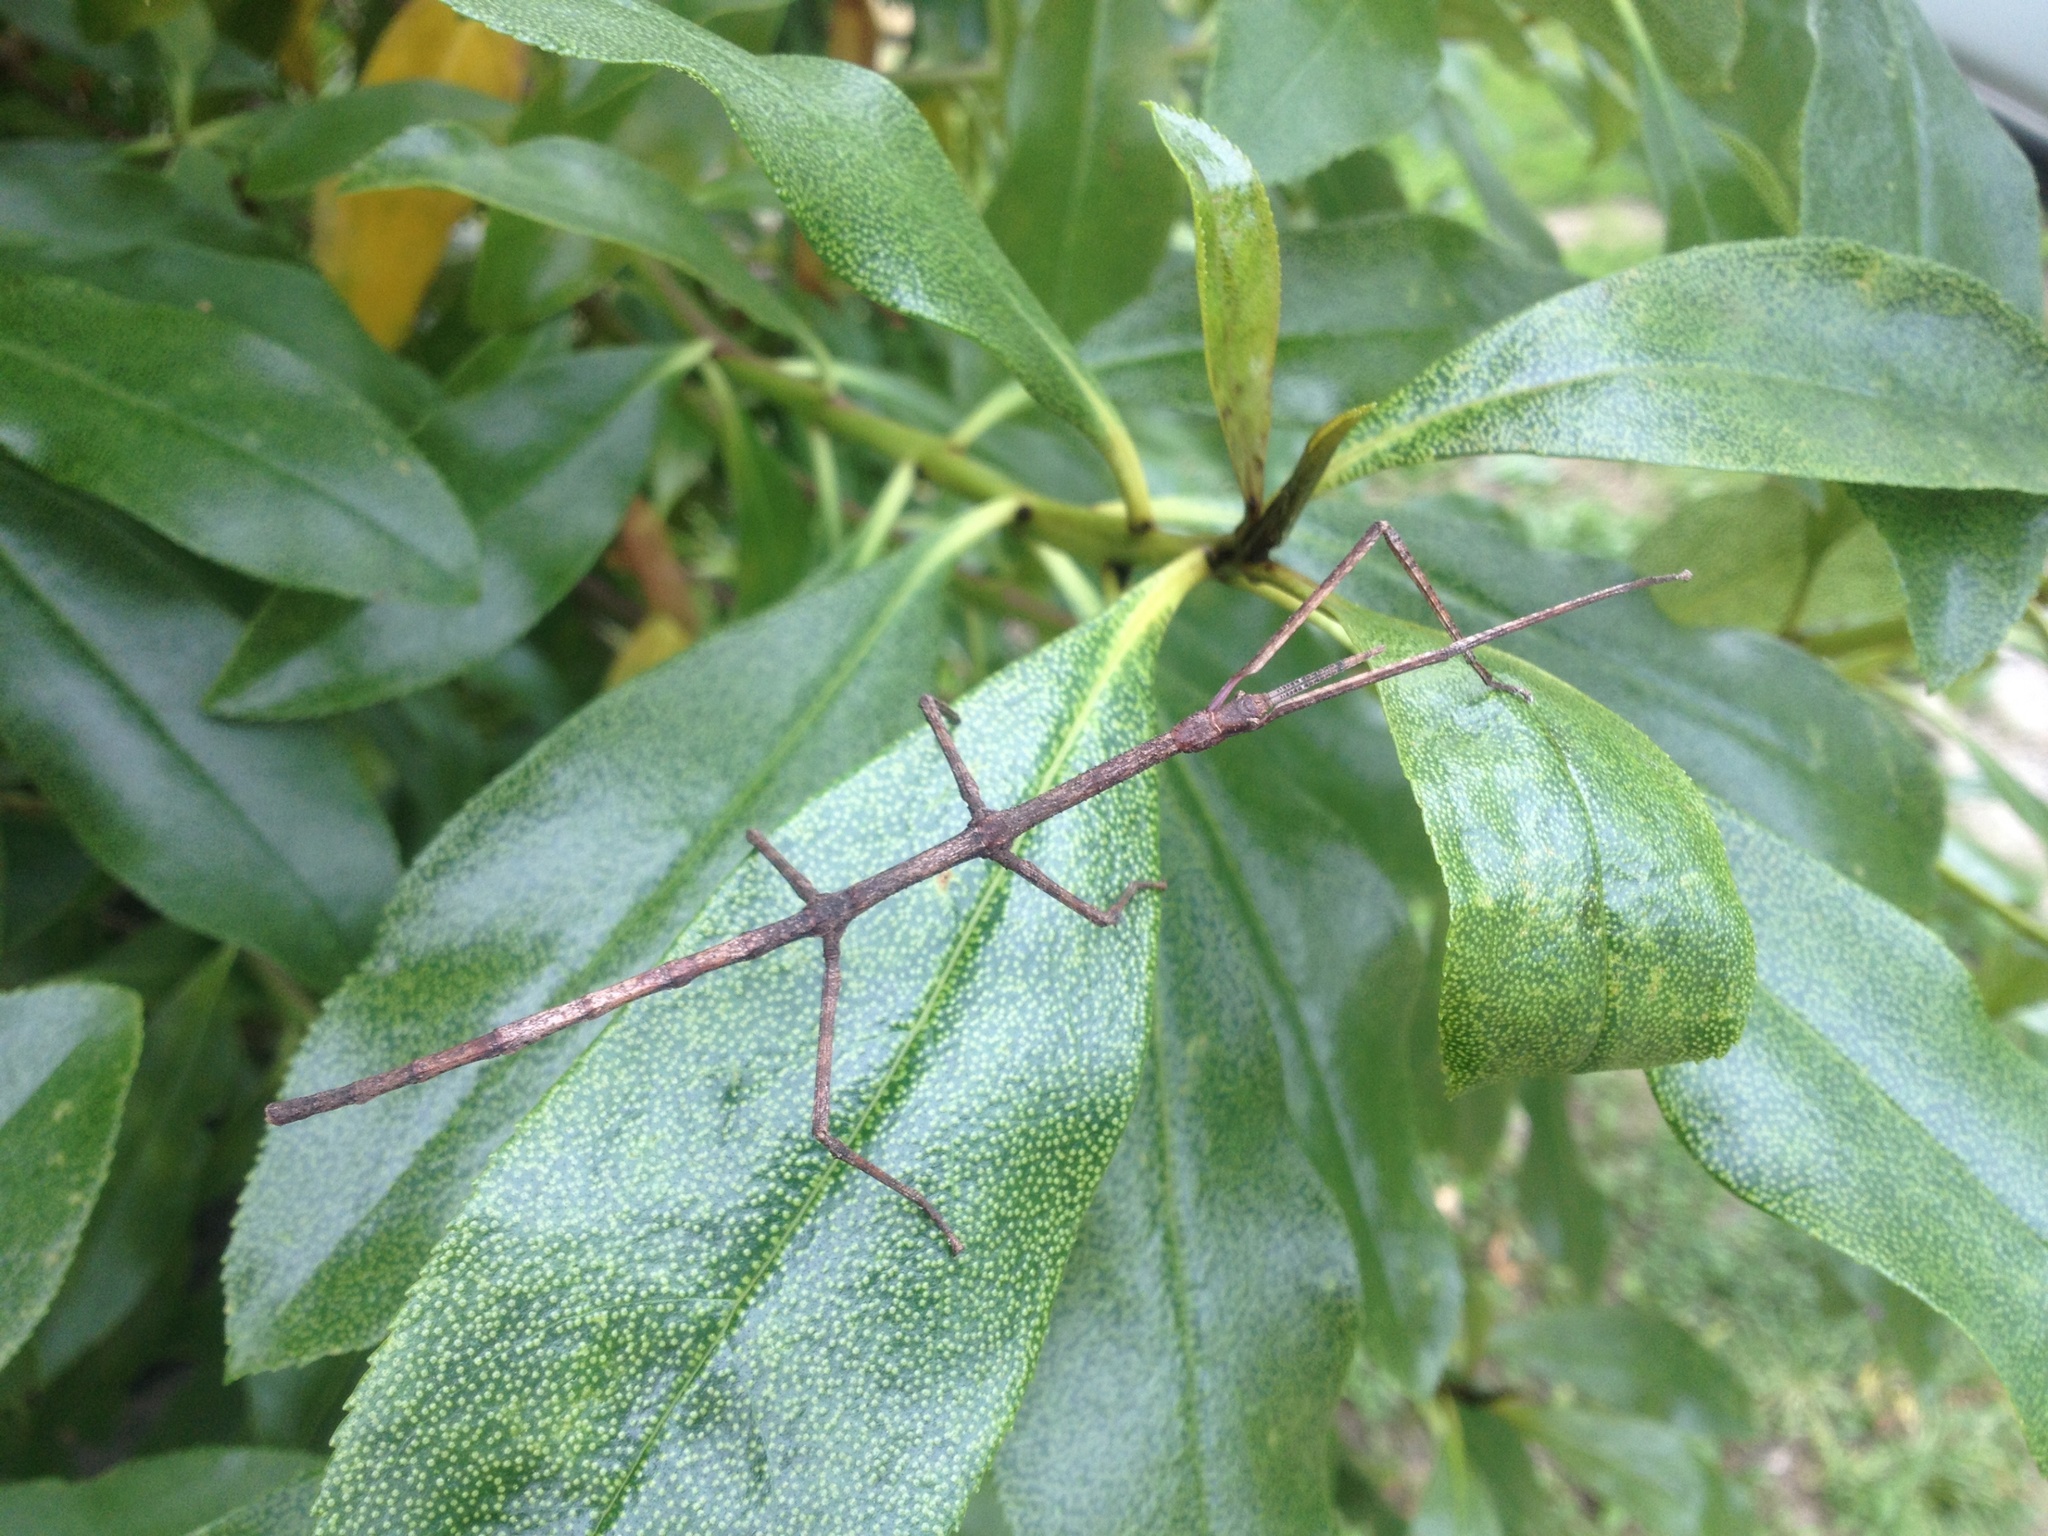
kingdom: Animalia
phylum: Arthropoda
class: Insecta
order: Phasmida
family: Phasmatidae
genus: Argosarchus
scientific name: Argosarchus horridus
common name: Bristly stick insect
